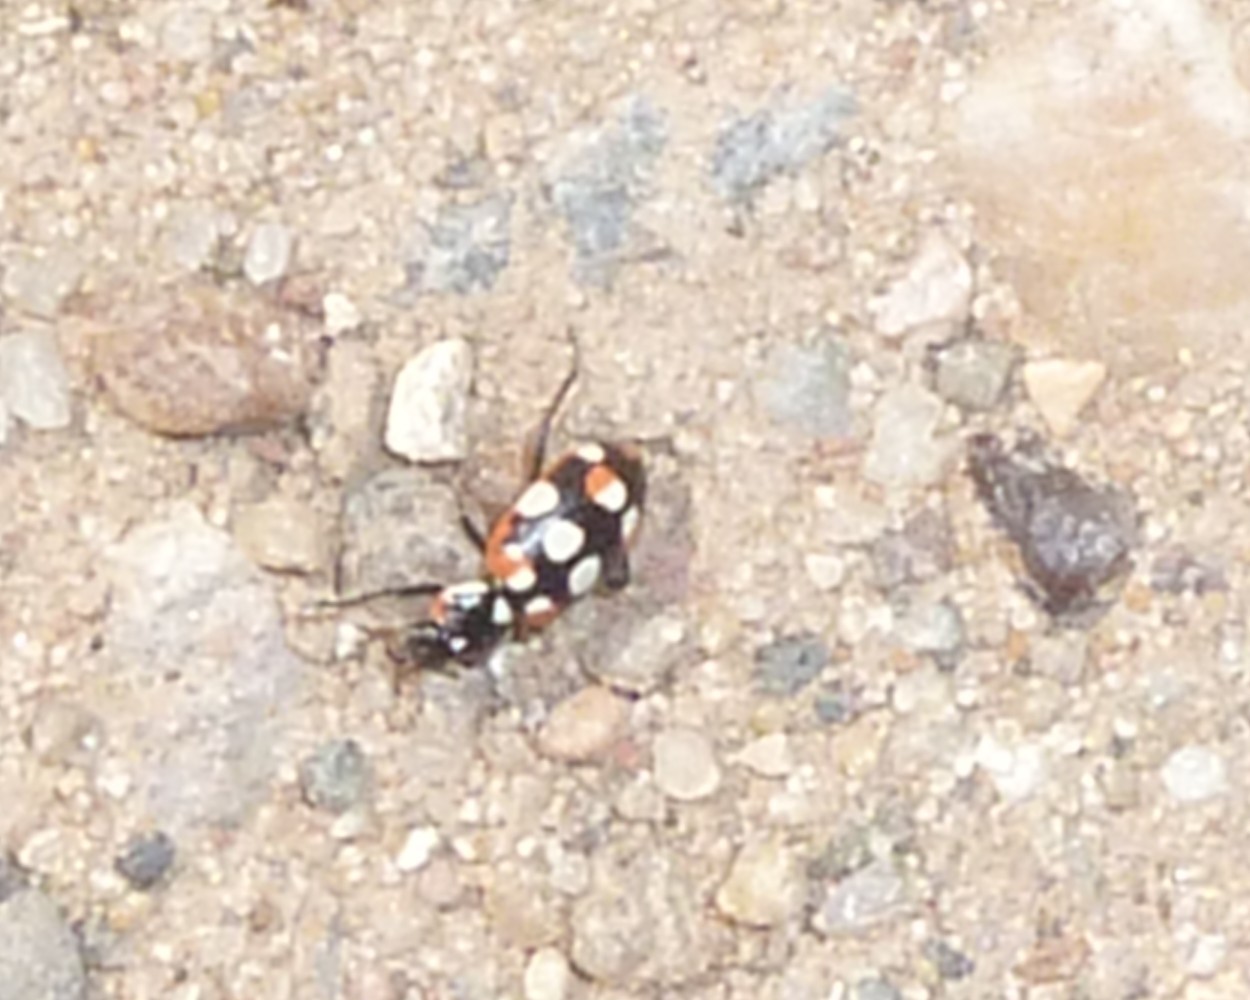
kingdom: Animalia
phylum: Arthropoda
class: Insecta
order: Coleoptera
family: Coccinellidae
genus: Eriopis
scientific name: Eriopis connexa
